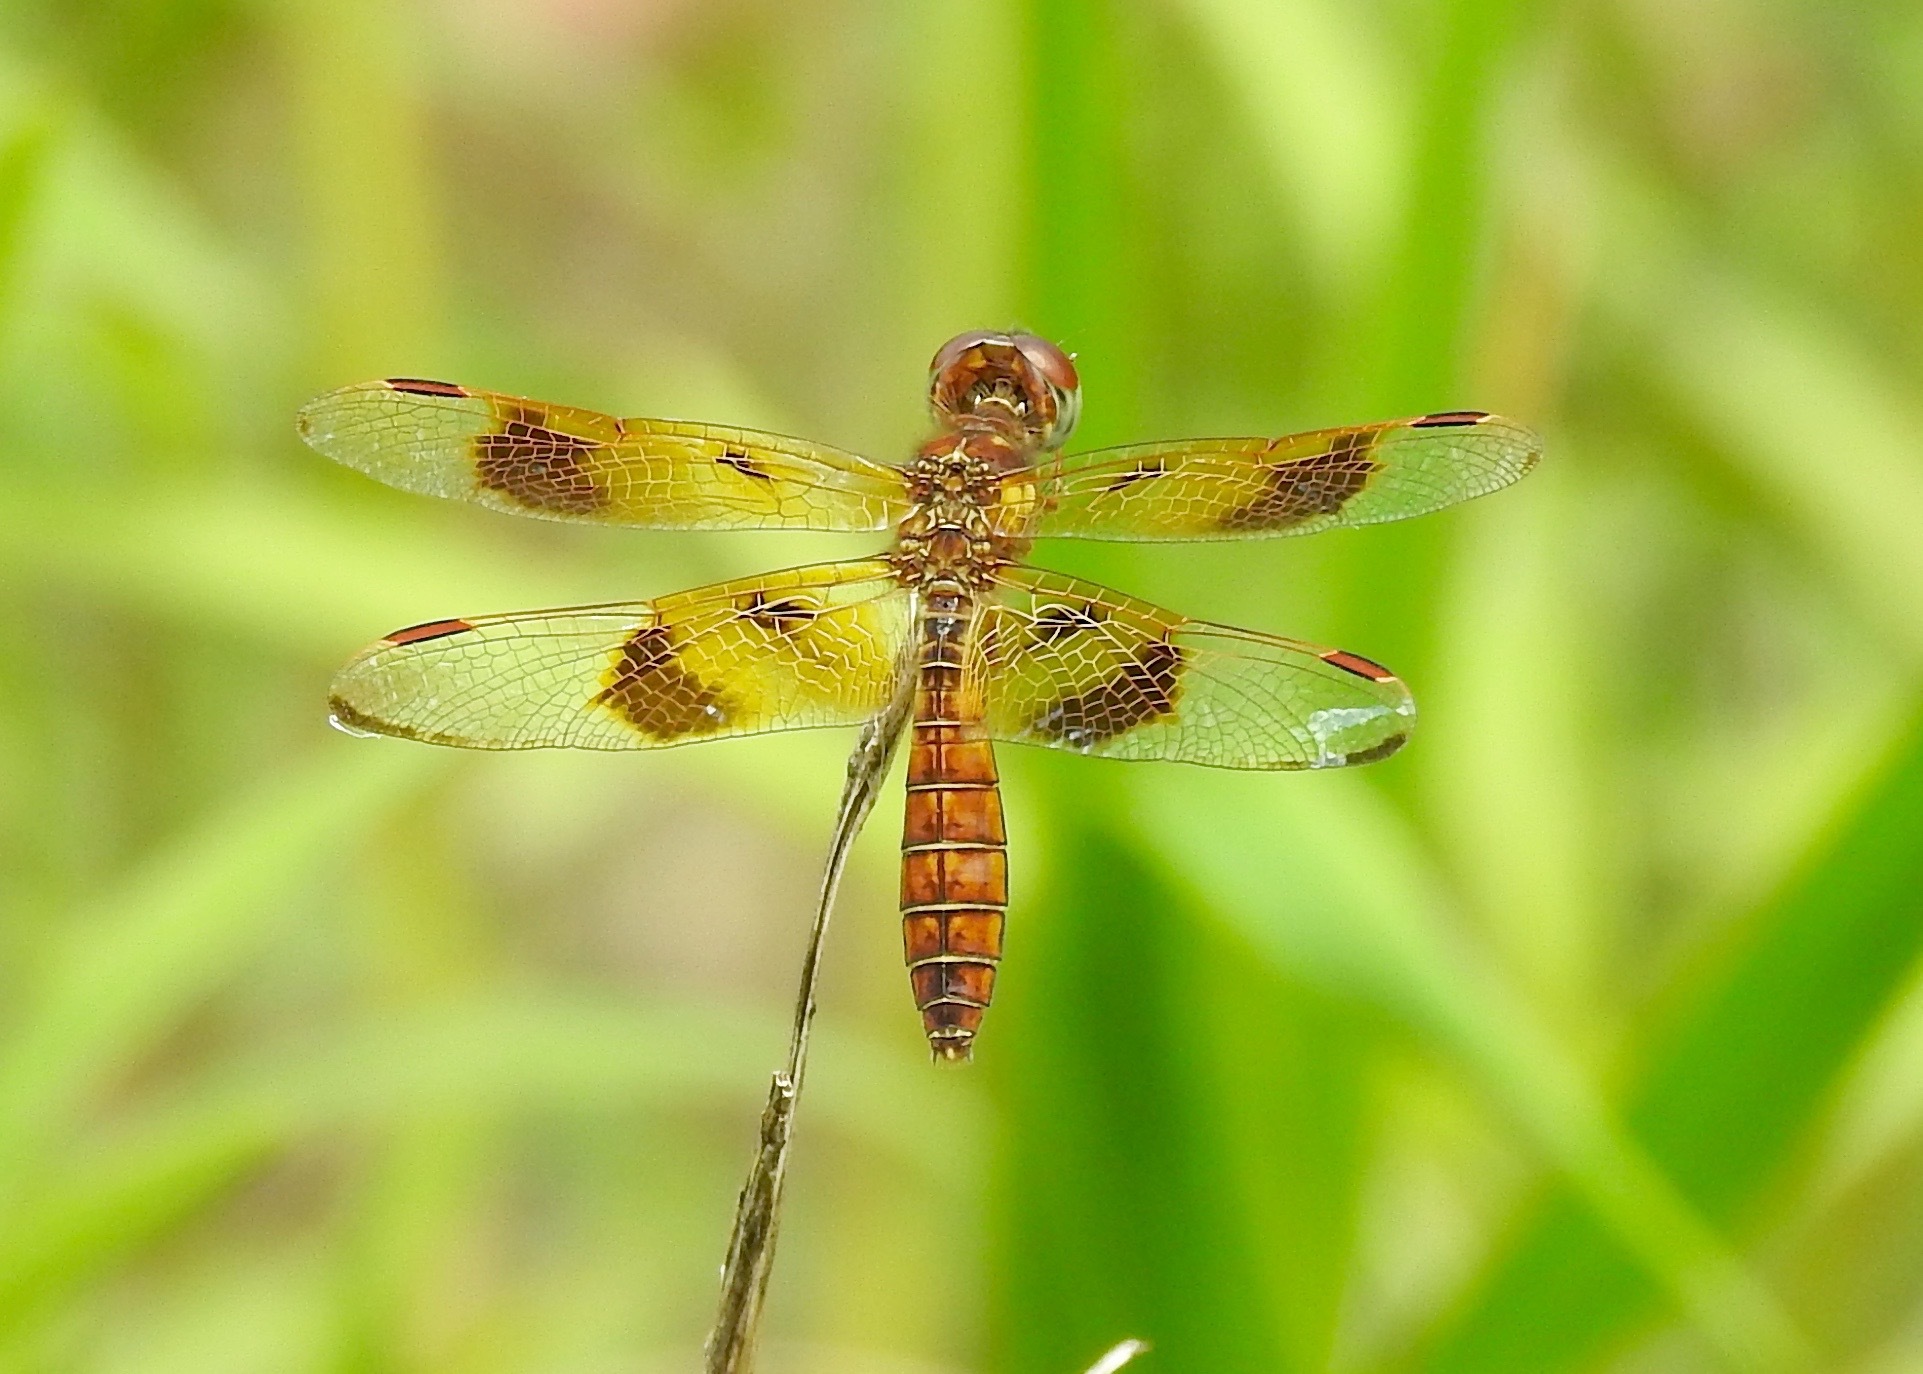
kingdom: Animalia
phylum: Arthropoda
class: Insecta
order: Odonata
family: Libellulidae
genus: Perithemis
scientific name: Perithemis tenera
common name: Eastern amberwing
